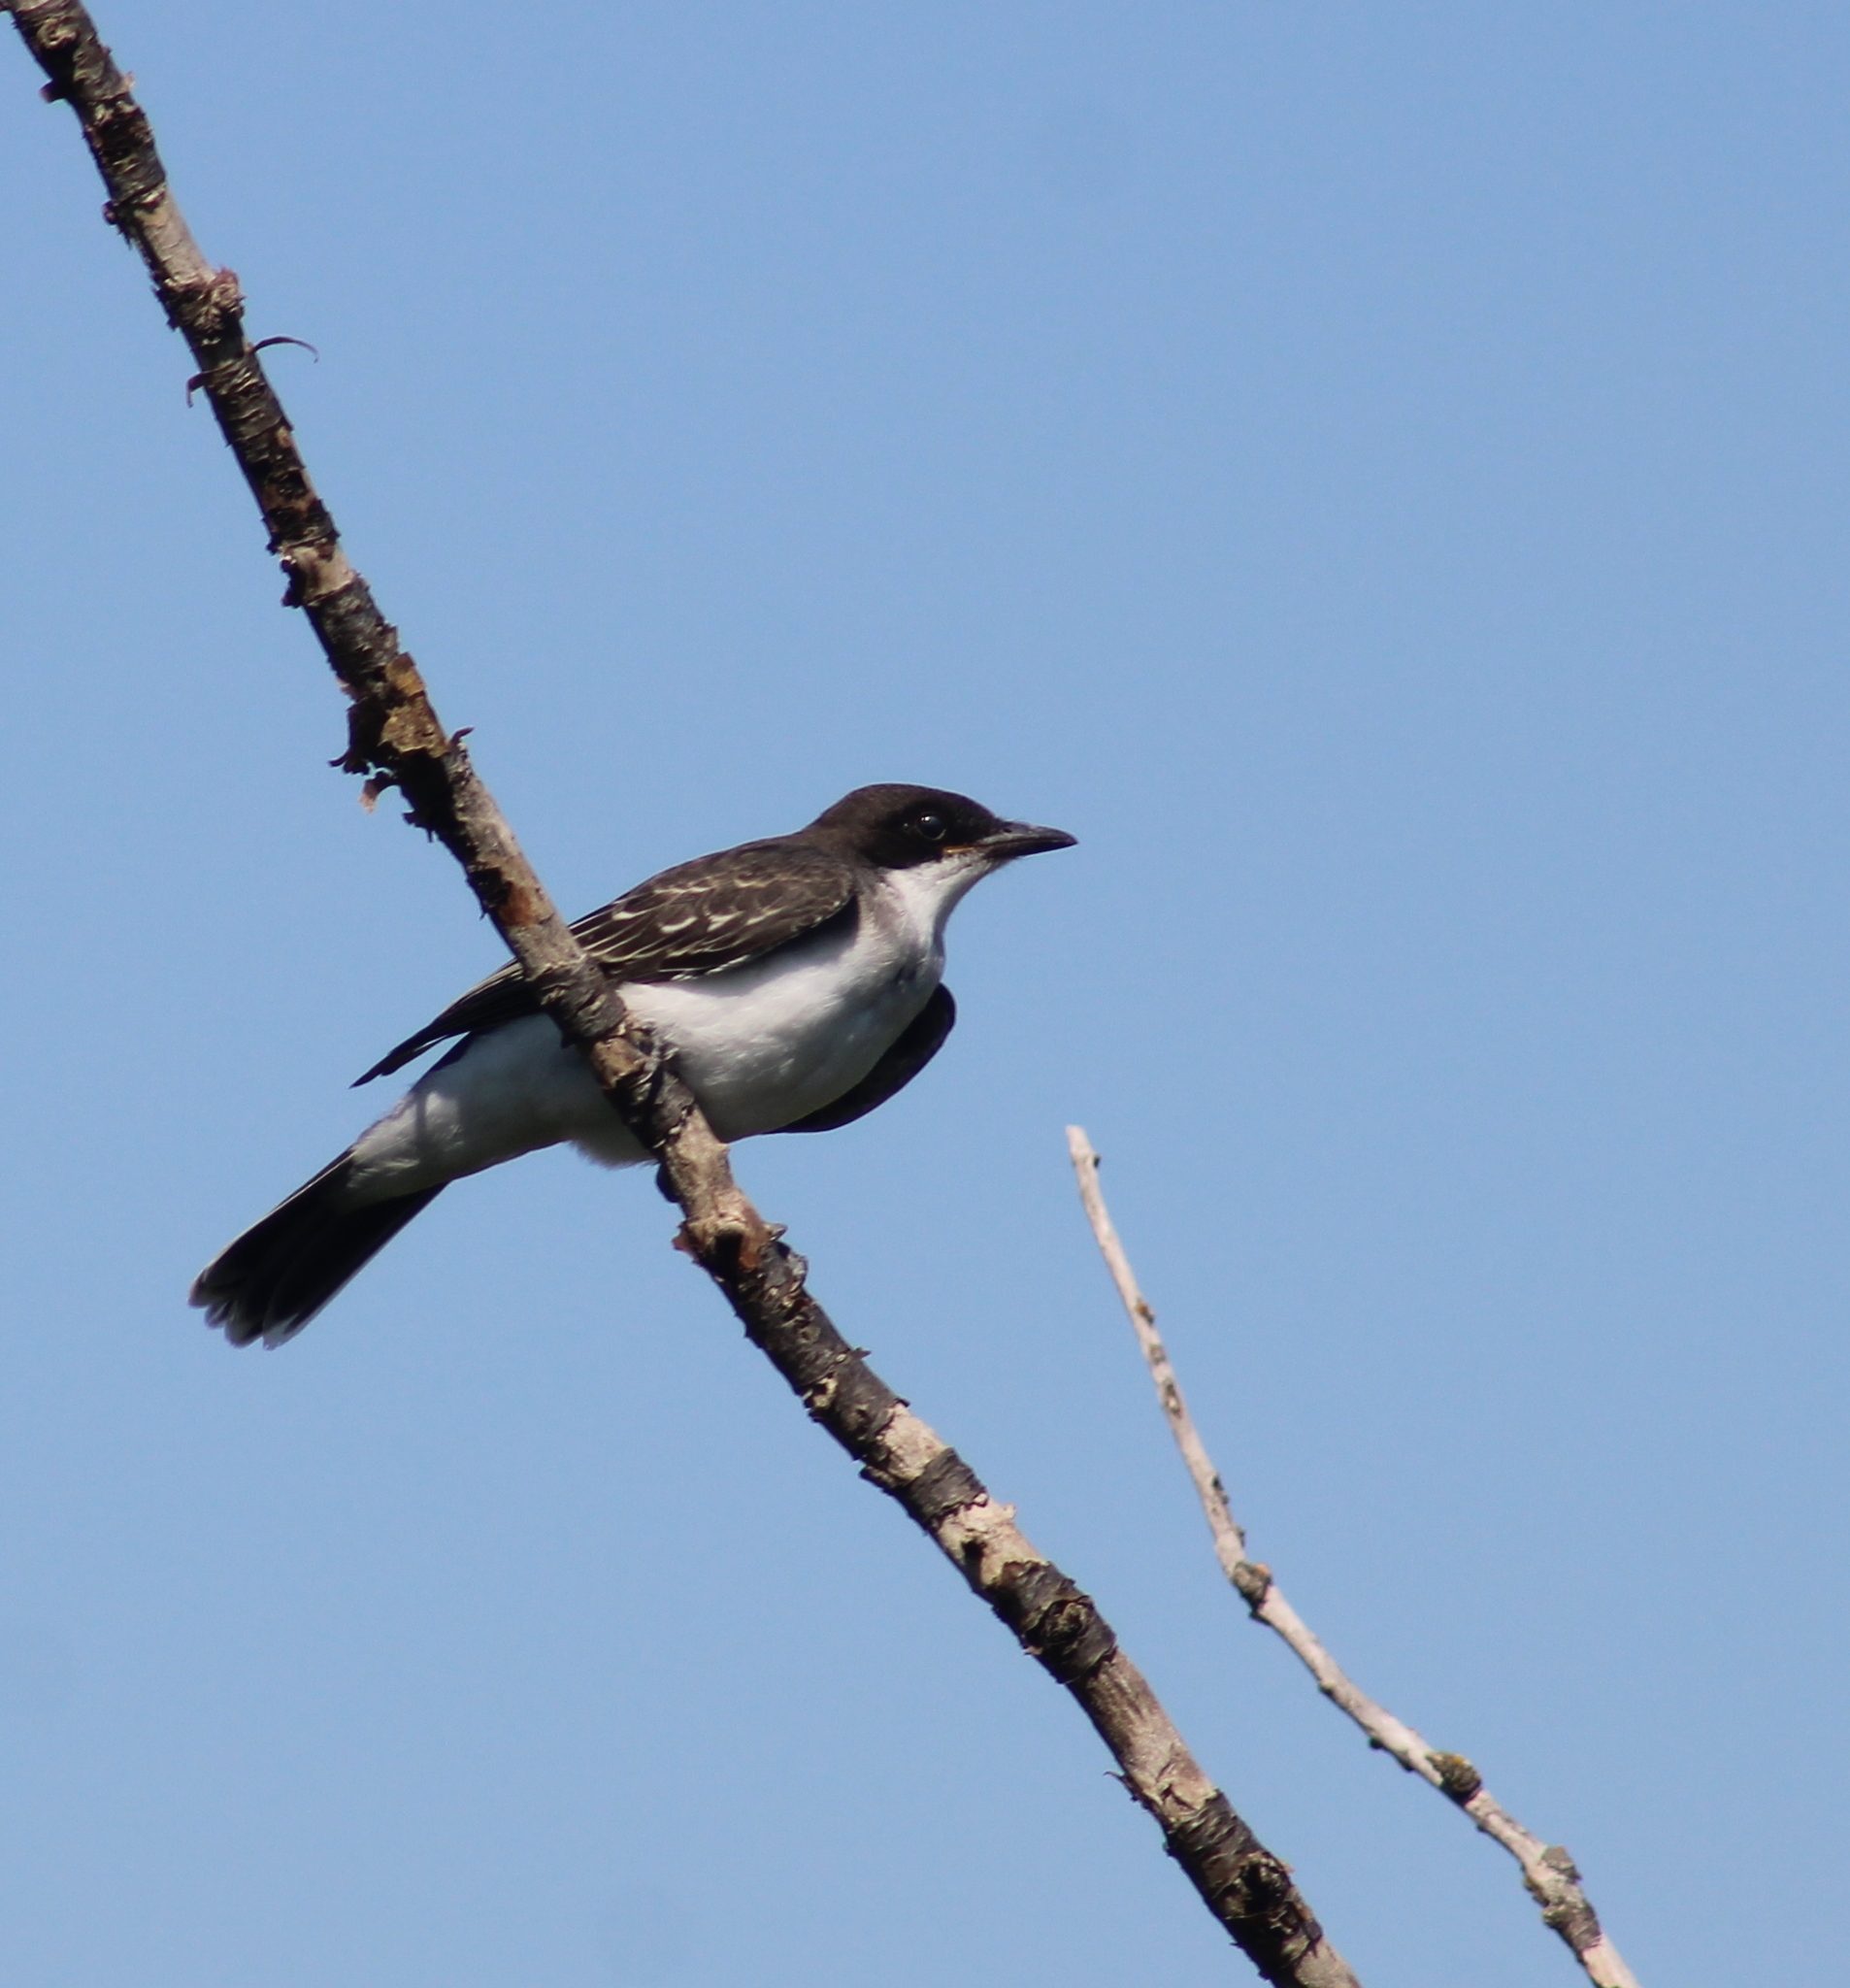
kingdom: Animalia
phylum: Chordata
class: Aves
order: Passeriformes
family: Tyrannidae
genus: Tyrannus
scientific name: Tyrannus tyrannus
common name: Eastern kingbird
